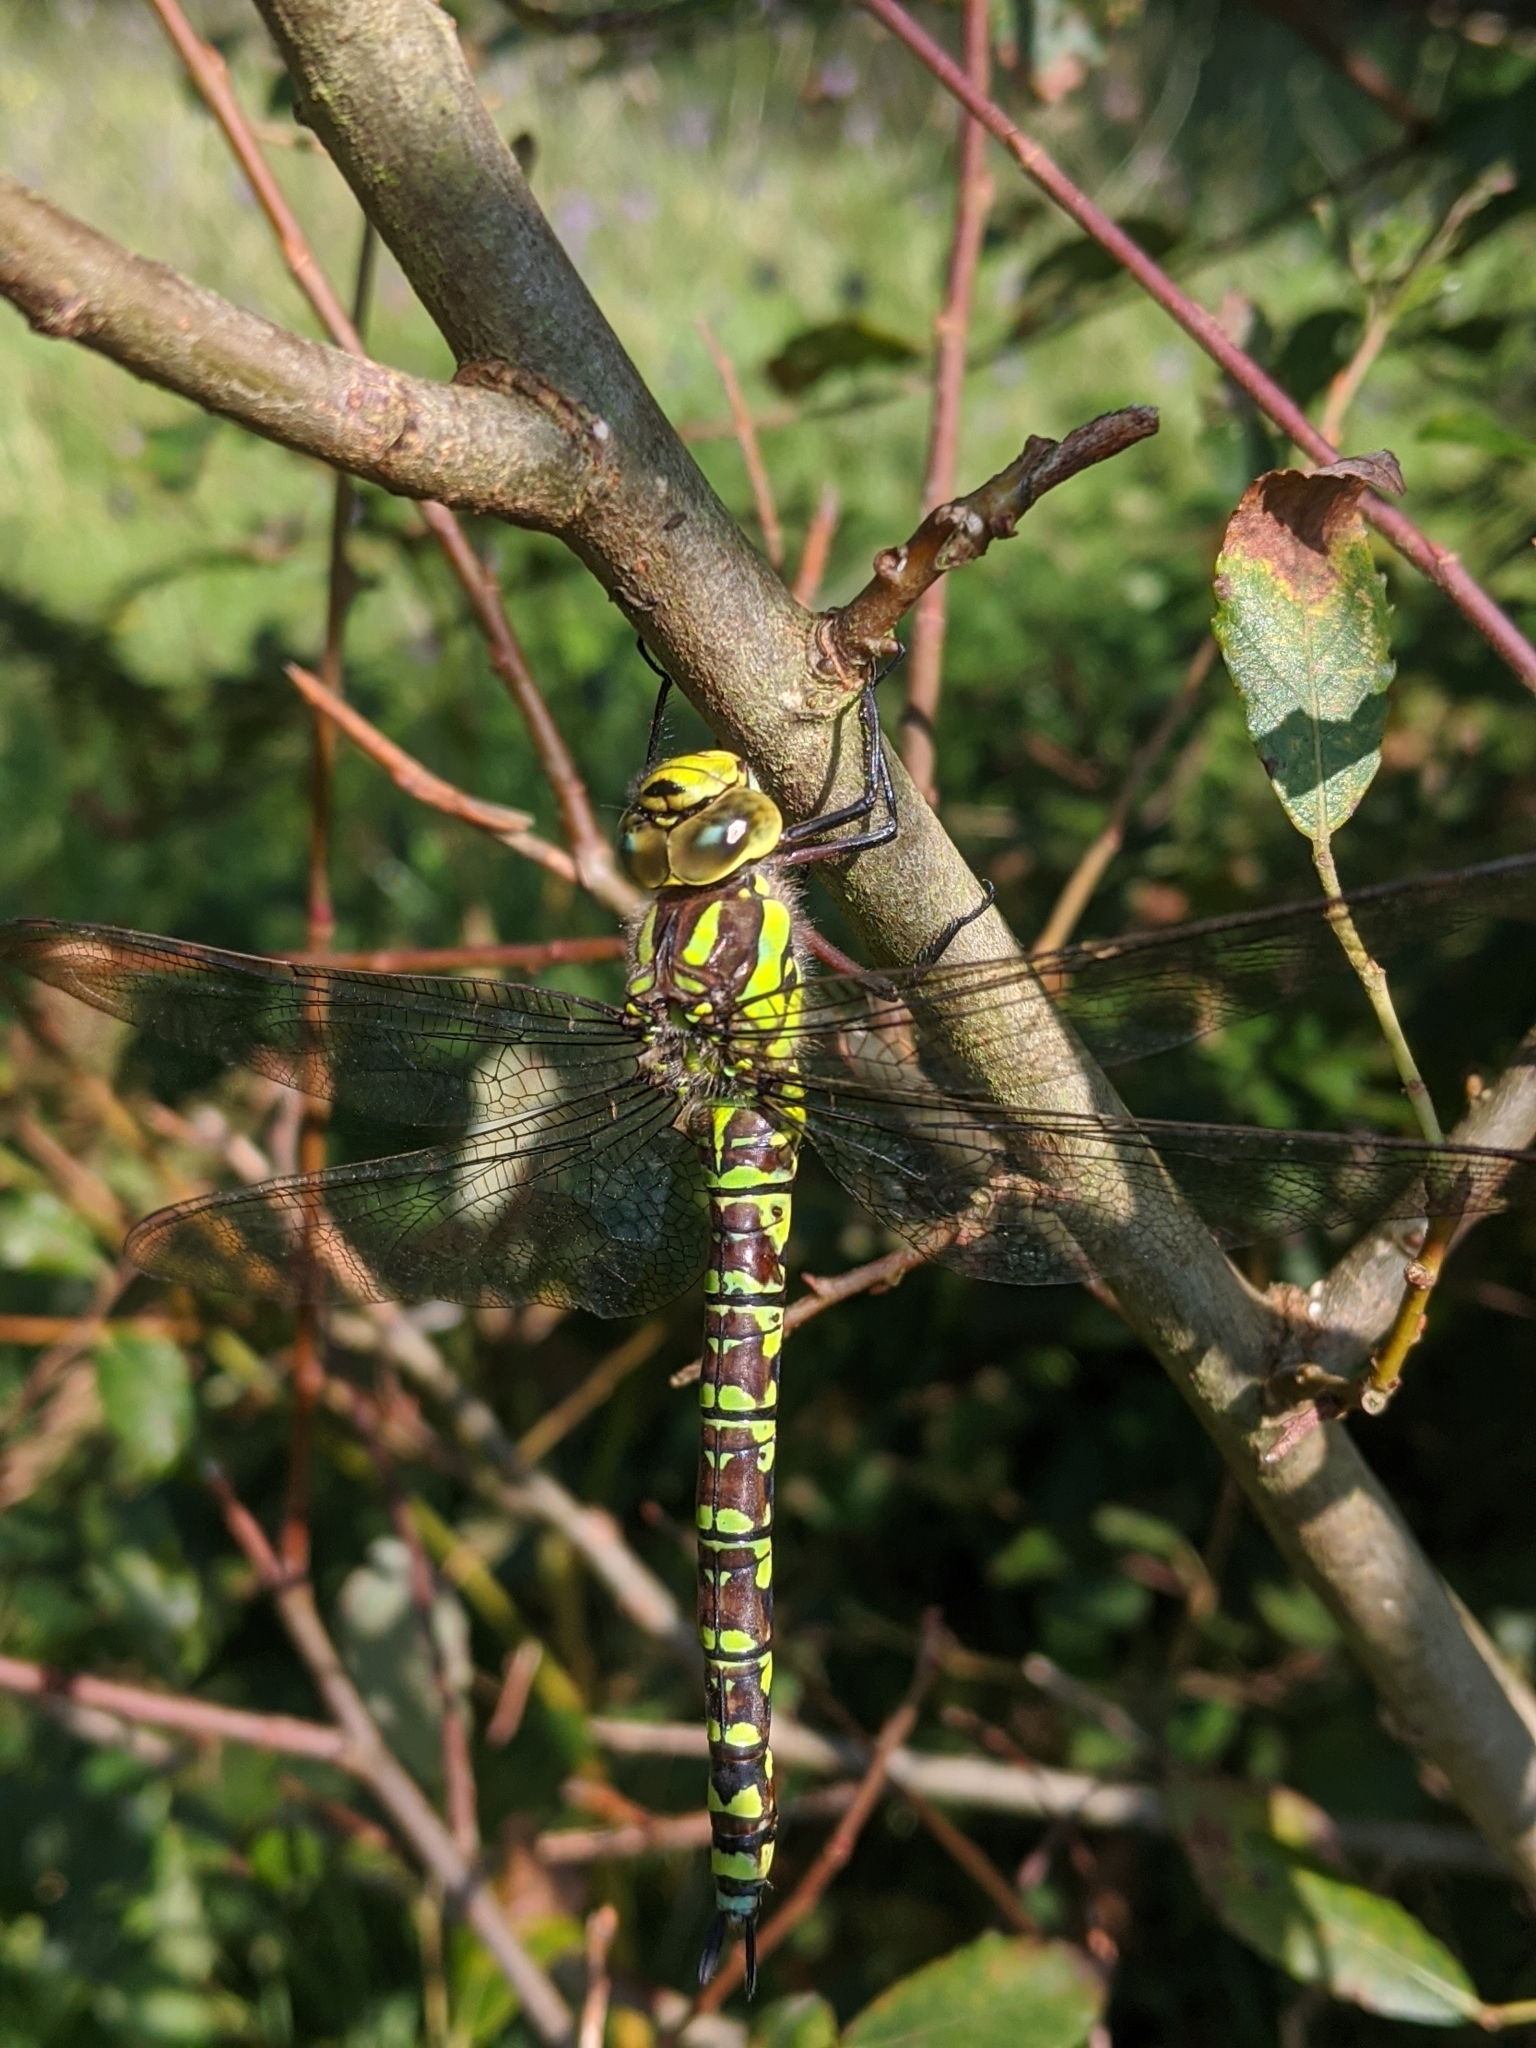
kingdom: Animalia
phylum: Arthropoda
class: Insecta
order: Odonata
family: Aeshnidae
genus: Aeshna
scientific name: Aeshna cyanea
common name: Southern hawker
